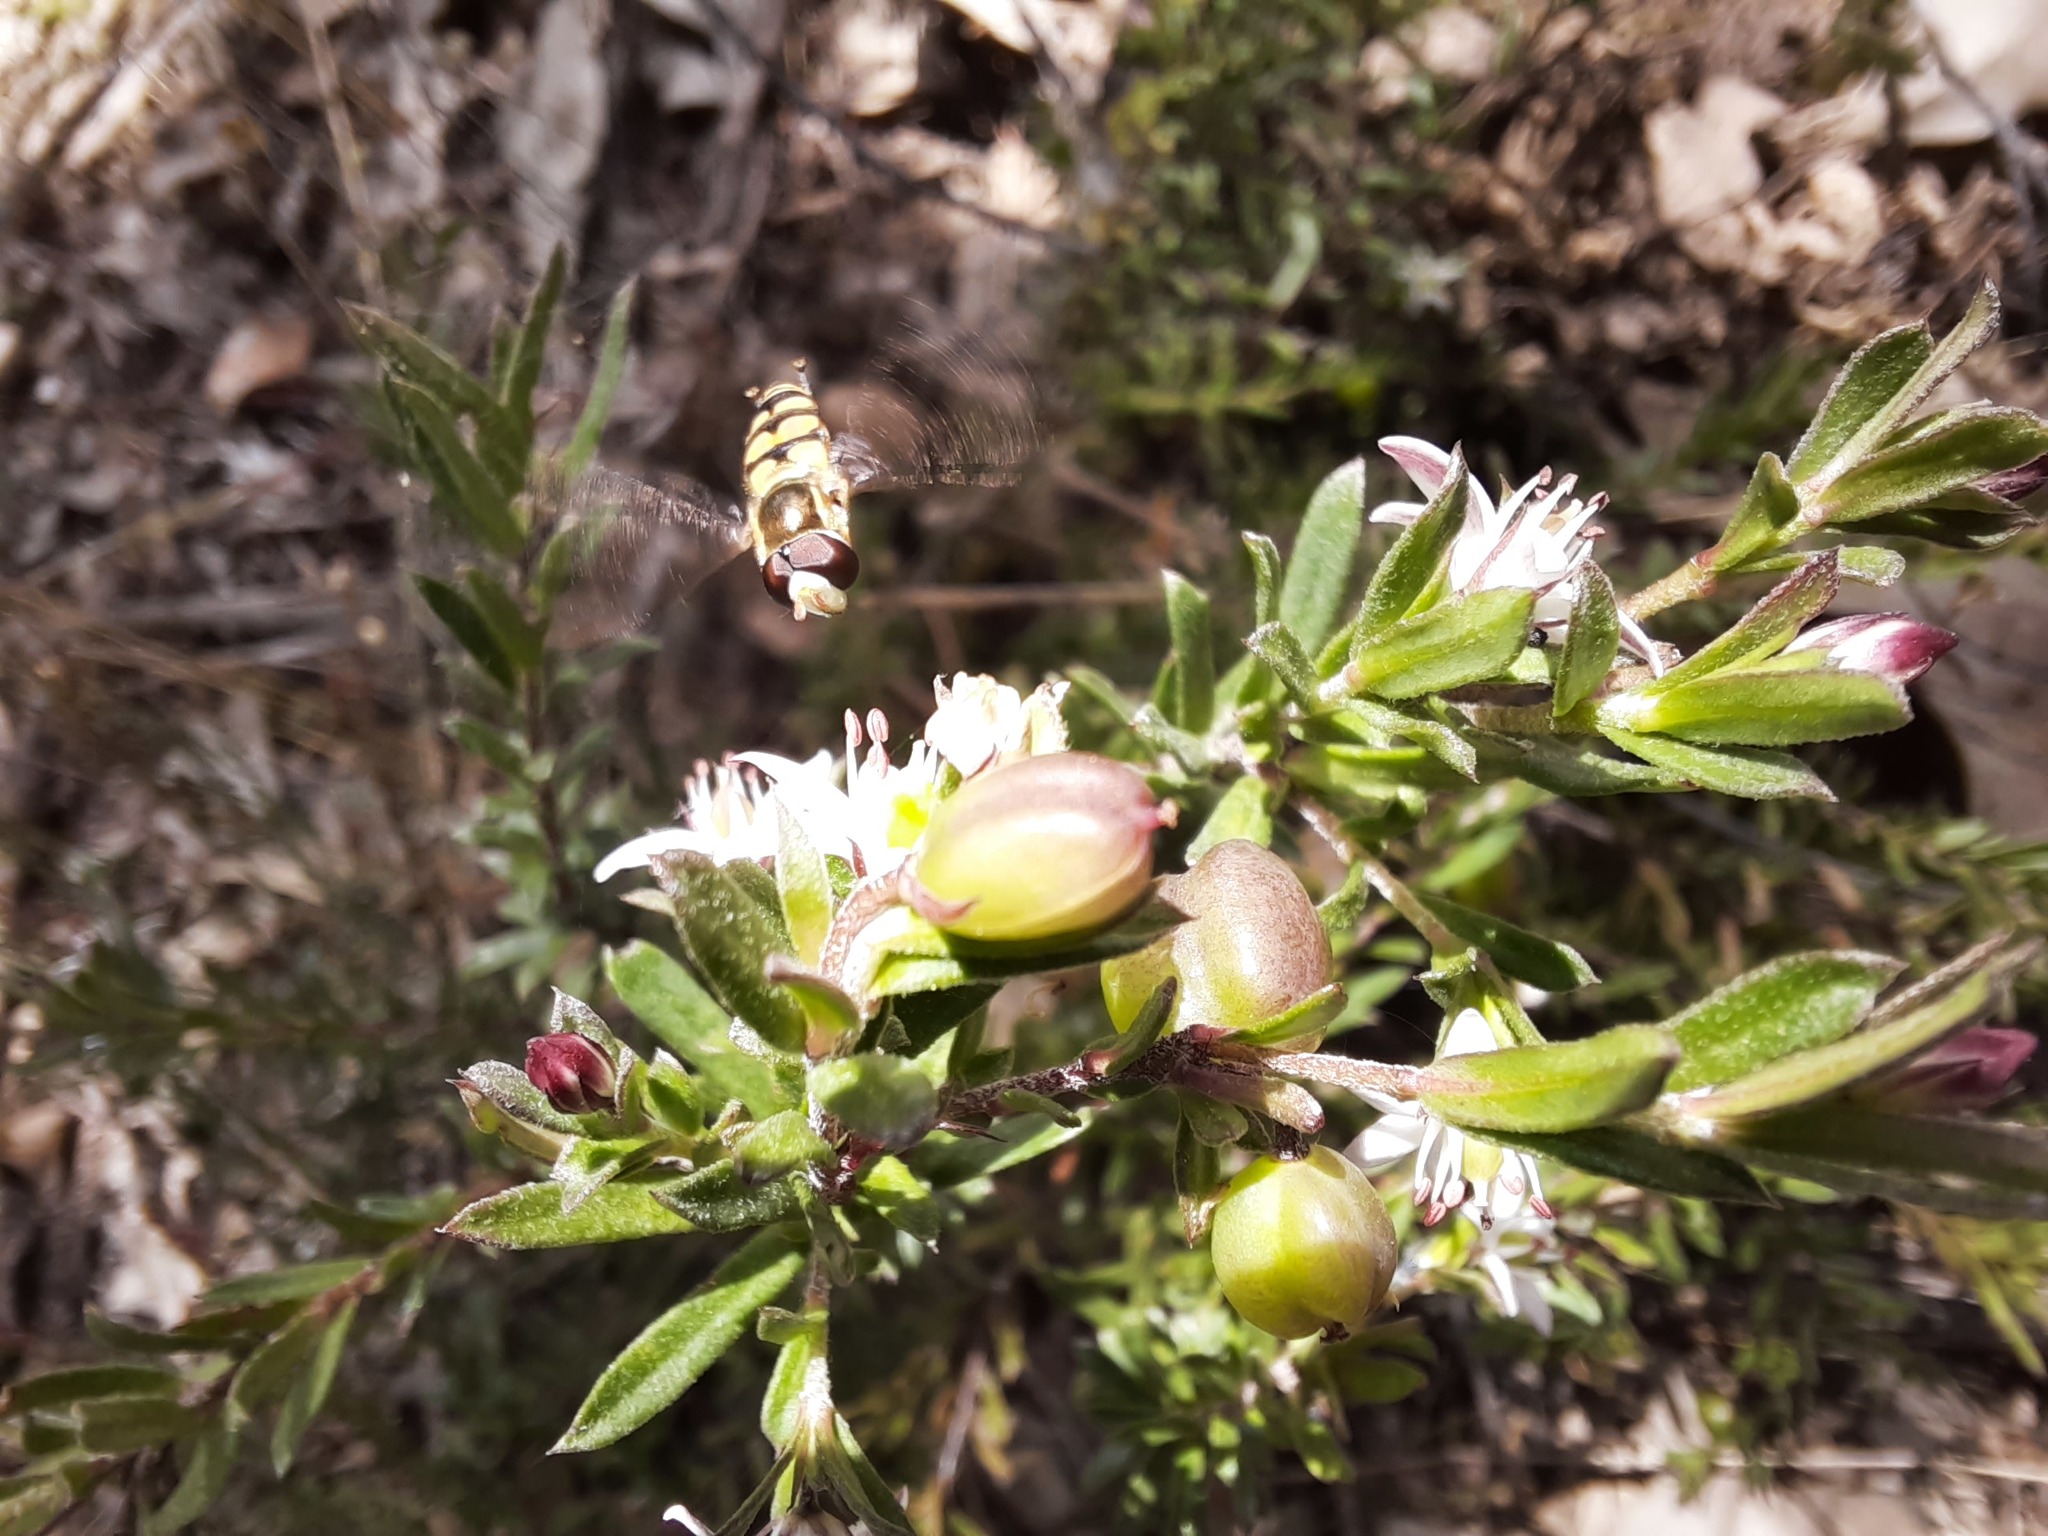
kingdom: Animalia
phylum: Arthropoda
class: Insecta
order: Diptera
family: Syrphidae
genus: Simosyrphus
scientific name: Simosyrphus grandicornis
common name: Hoverfly
